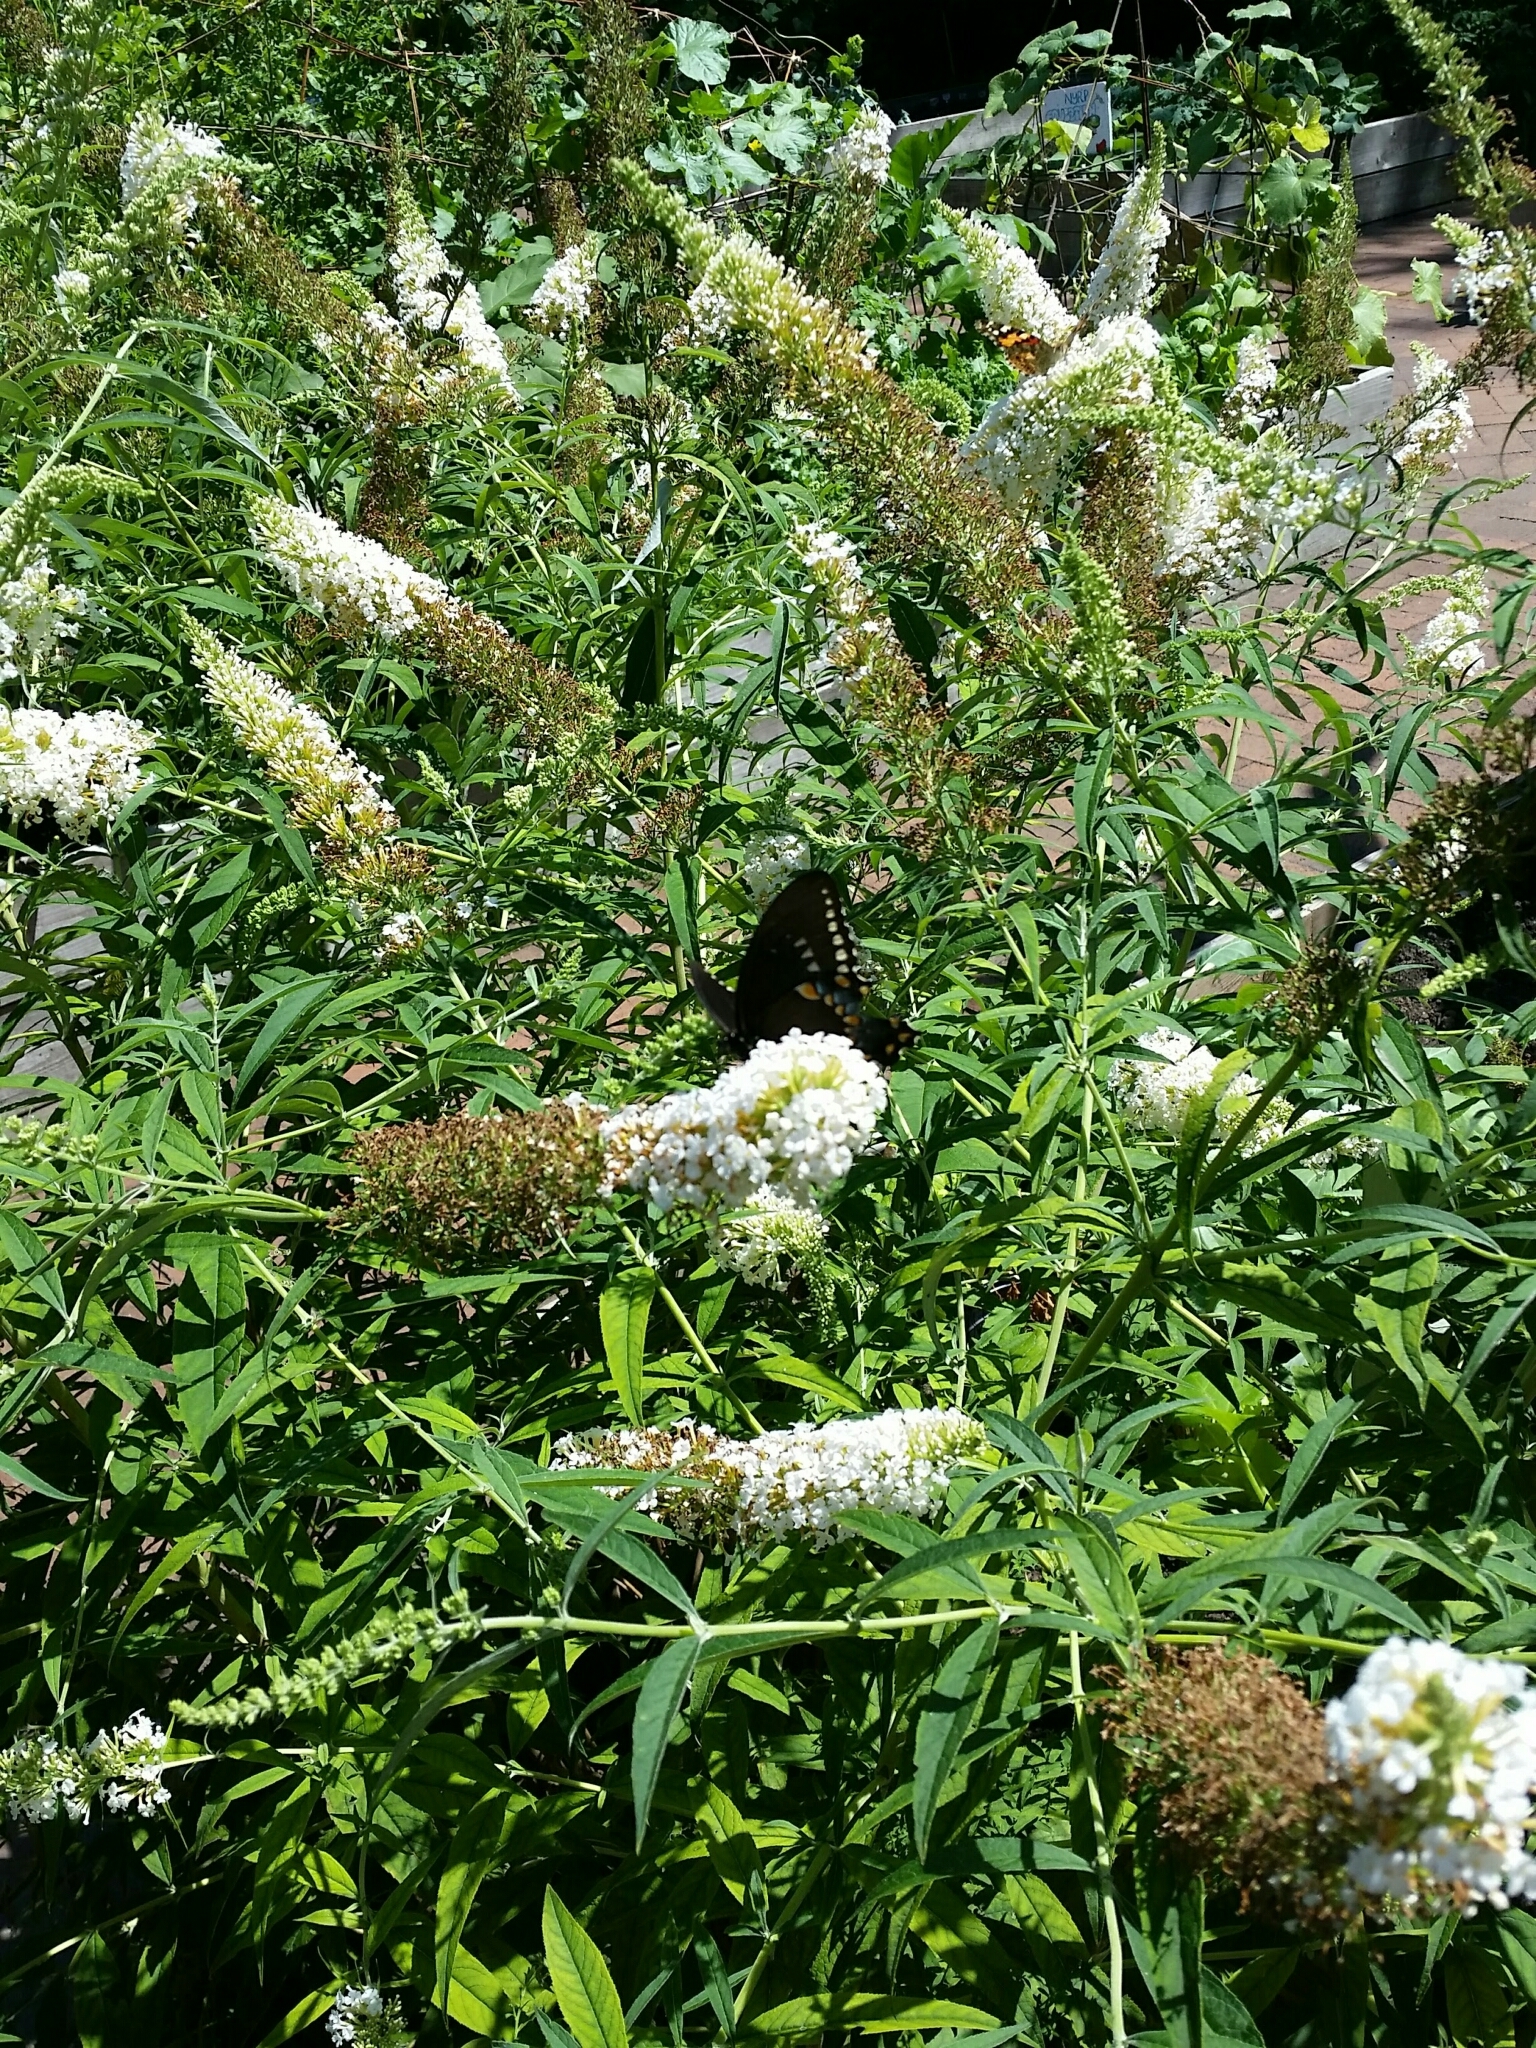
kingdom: Animalia
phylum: Arthropoda
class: Insecta
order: Lepidoptera
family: Papilionidae
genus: Papilio
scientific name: Papilio troilus
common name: Spicebush swallowtail
